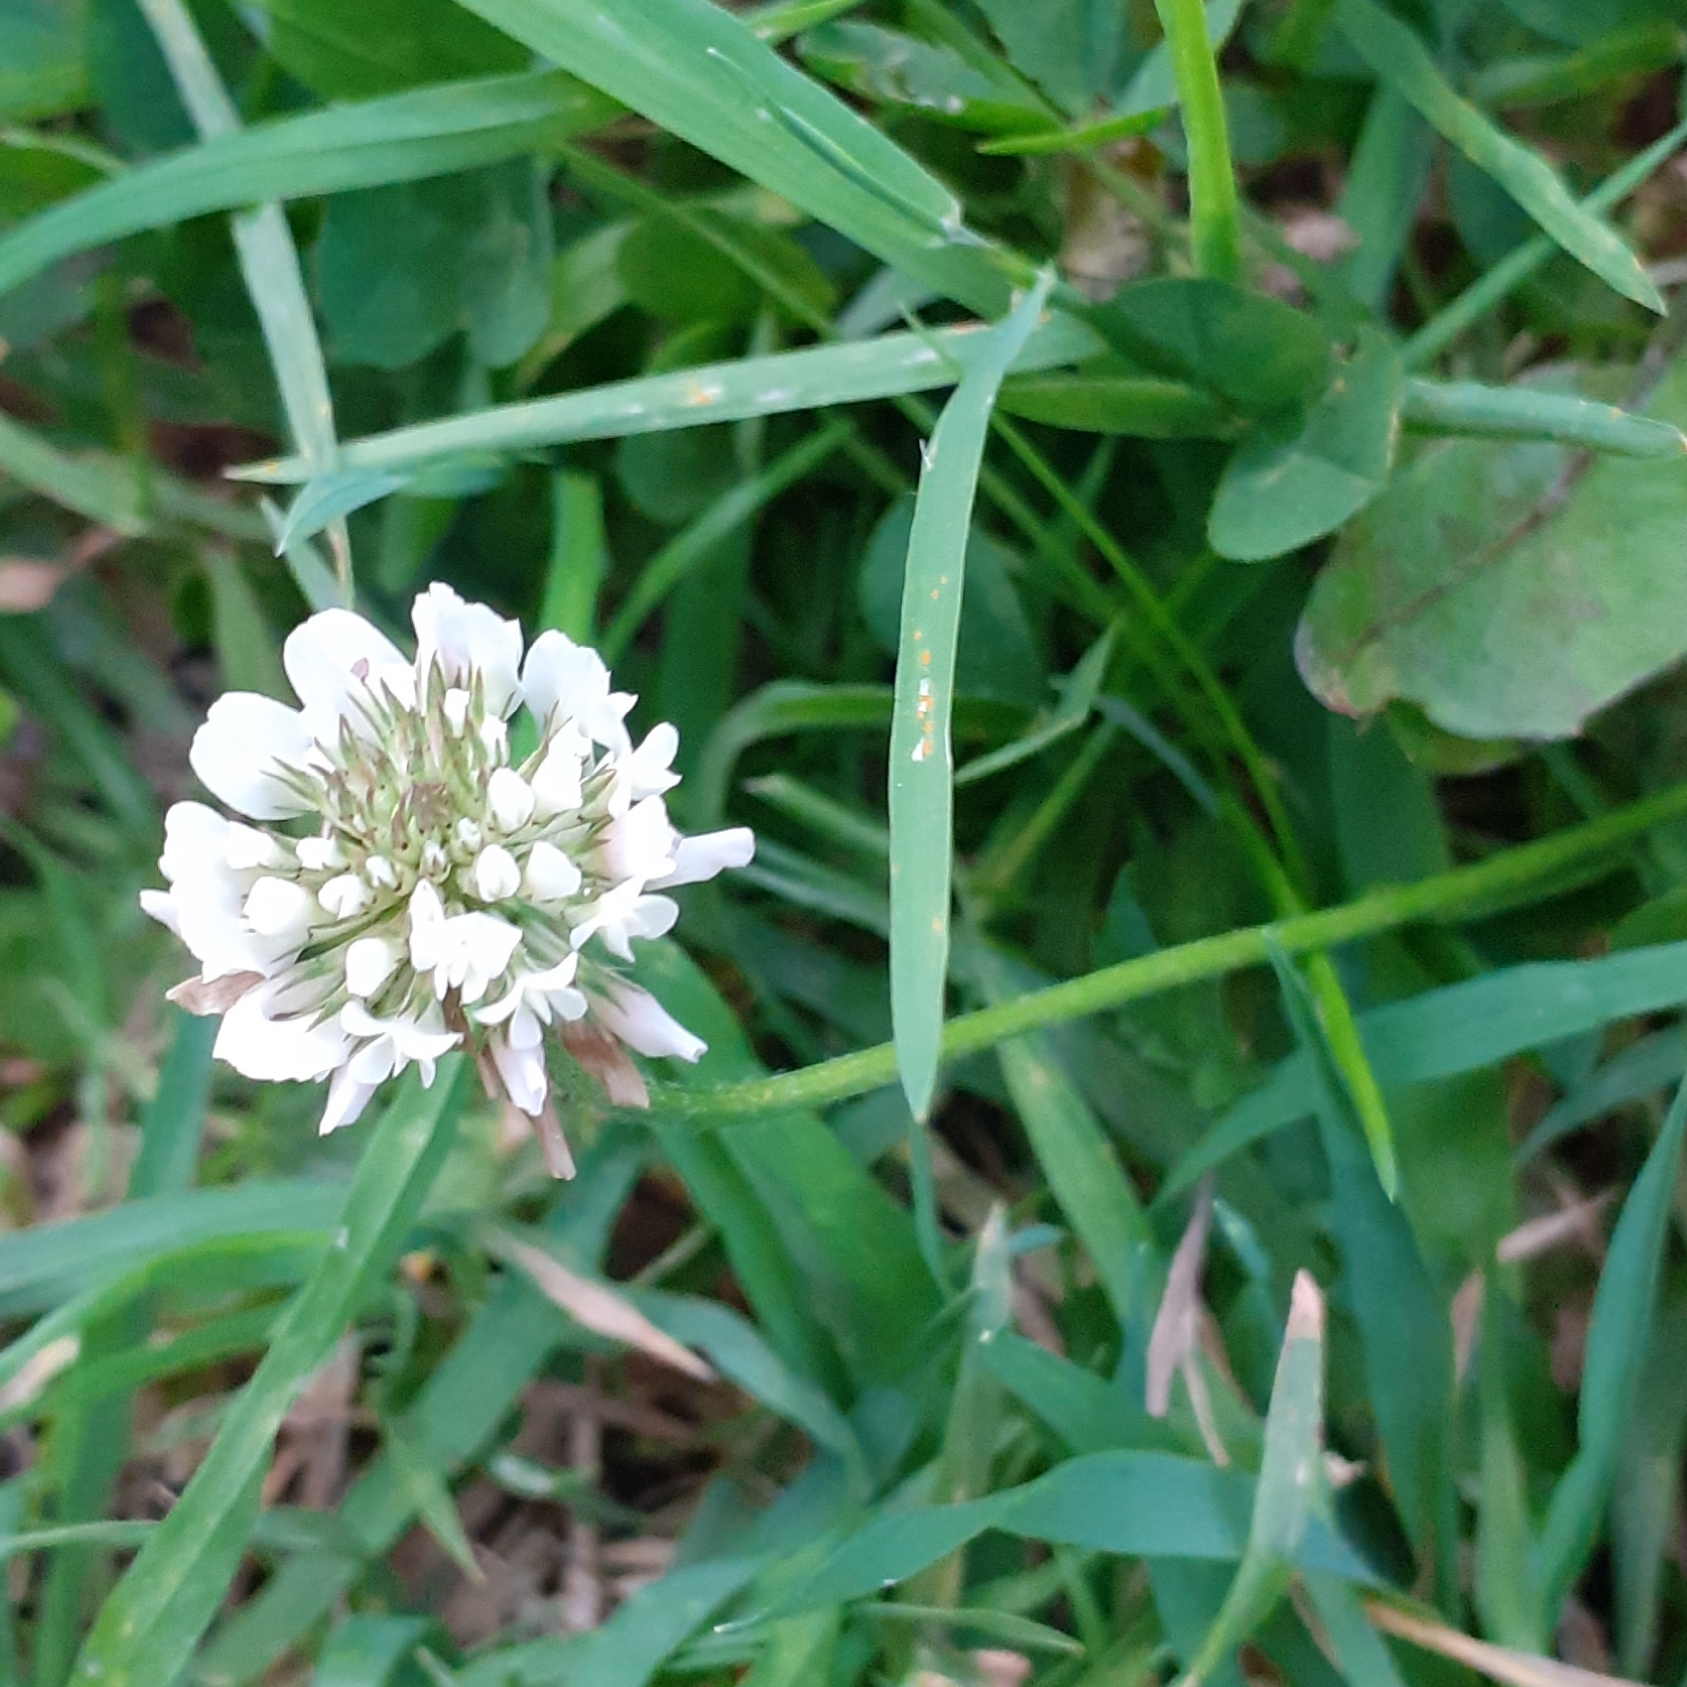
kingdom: Plantae
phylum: Tracheophyta
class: Magnoliopsida
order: Fabales
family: Fabaceae
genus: Trifolium
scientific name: Trifolium repens
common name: White clover
